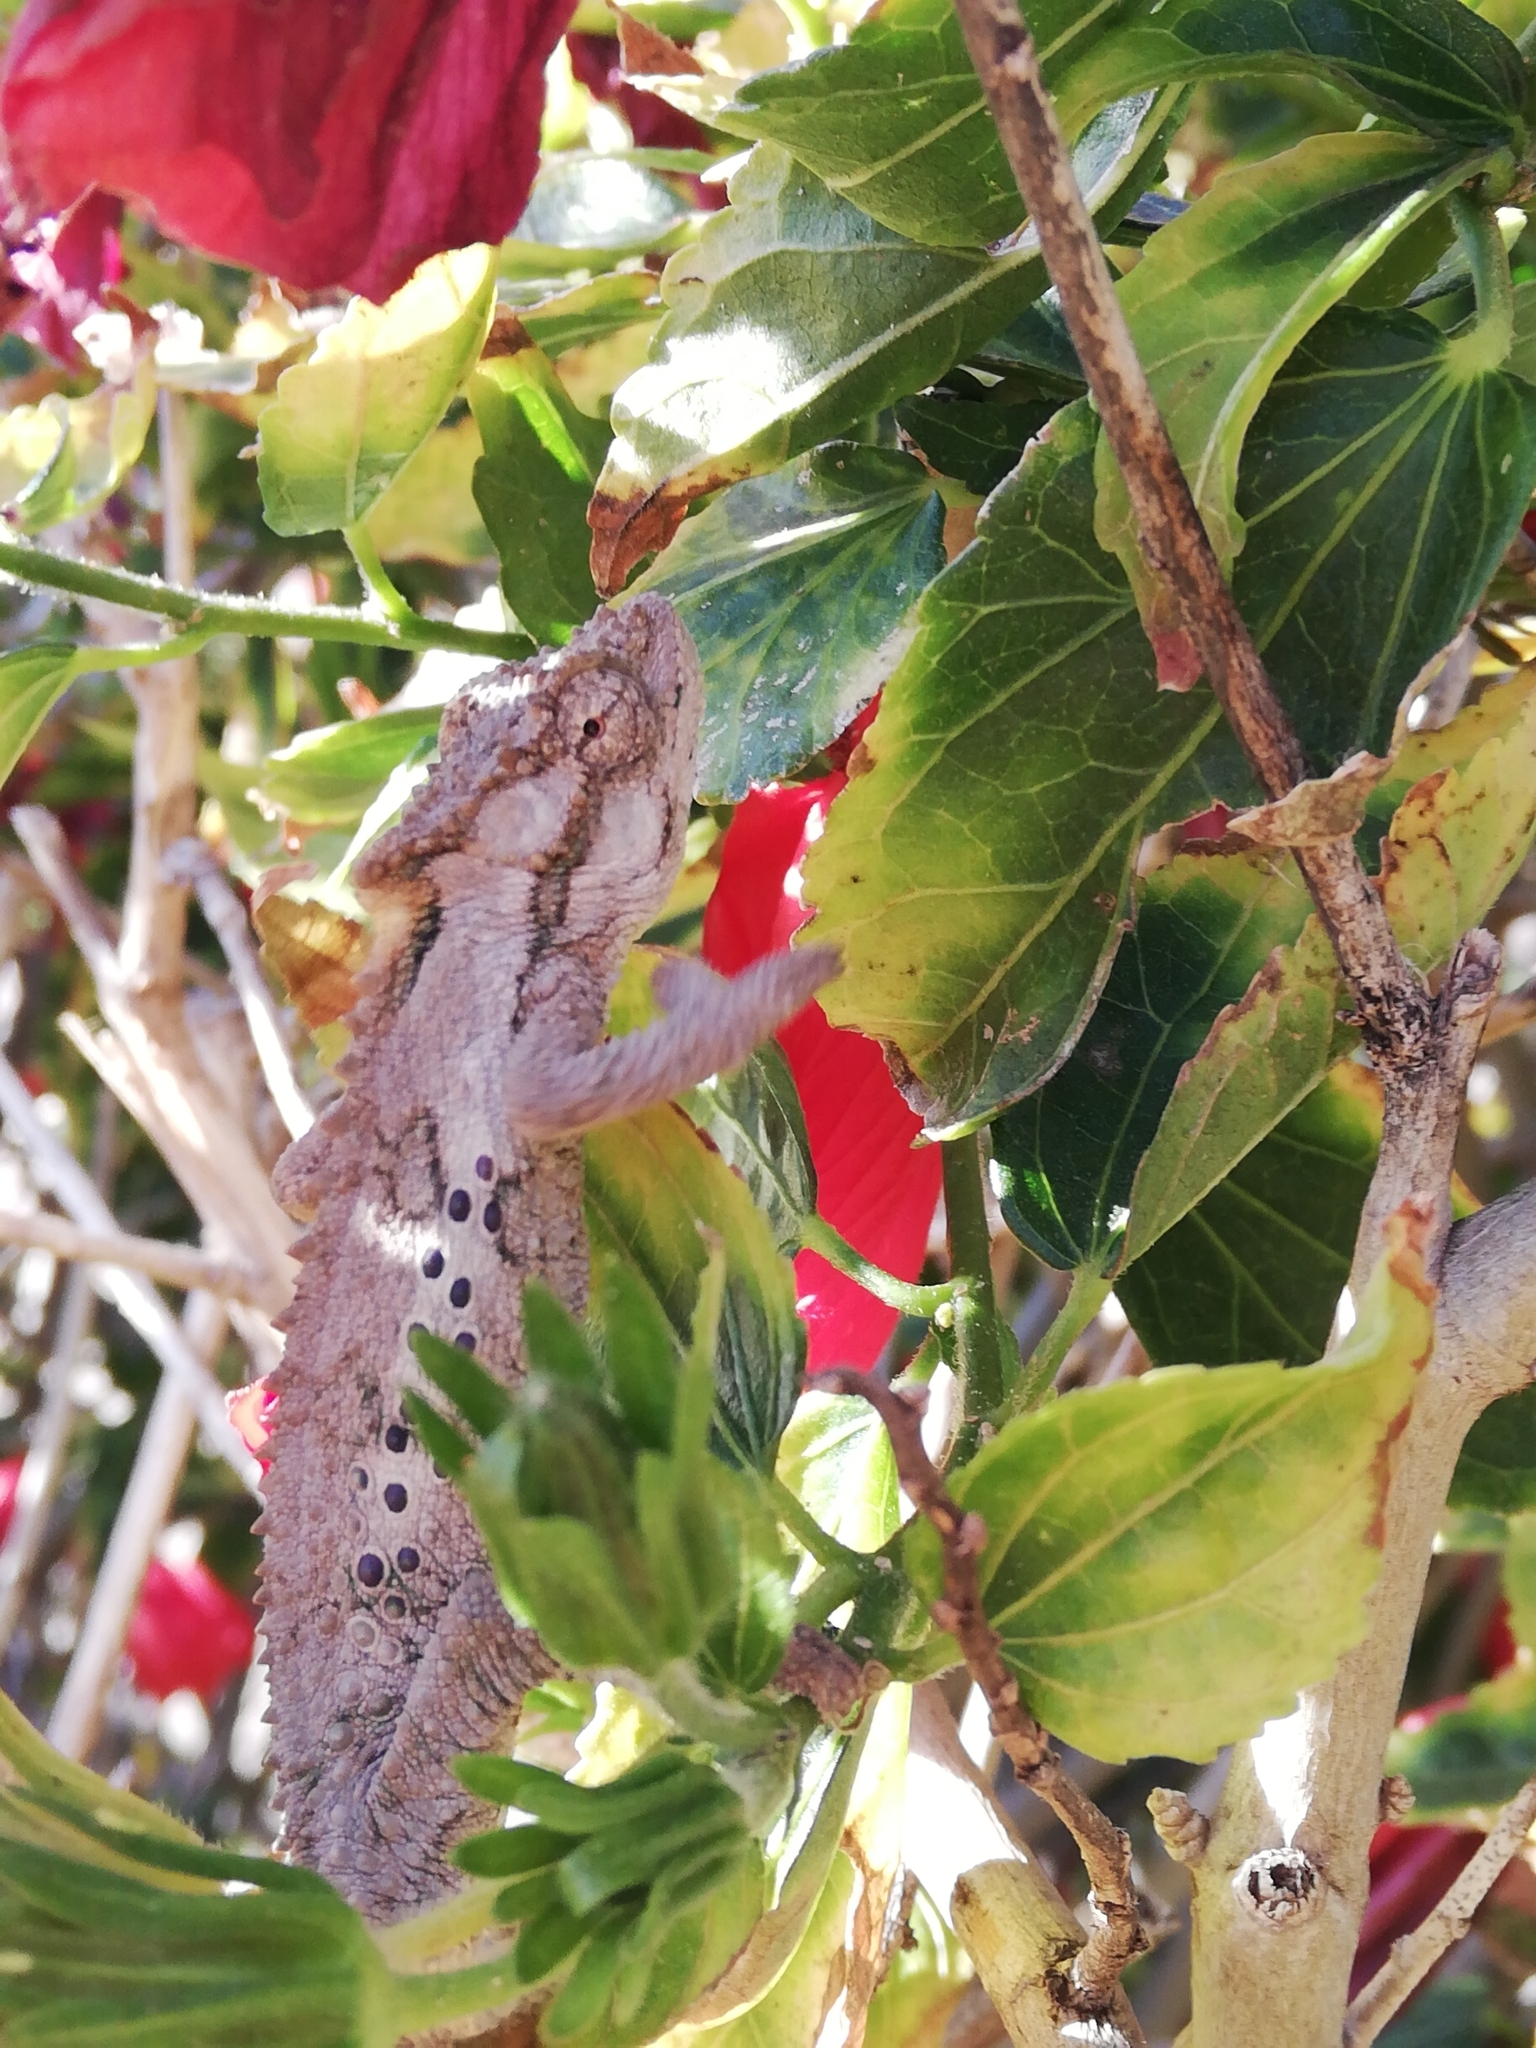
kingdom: Animalia
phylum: Chordata
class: Squamata
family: Chamaeleonidae
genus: Bradypodion
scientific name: Bradypodion ventrale
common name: Eastern cape dwarf chameleon
